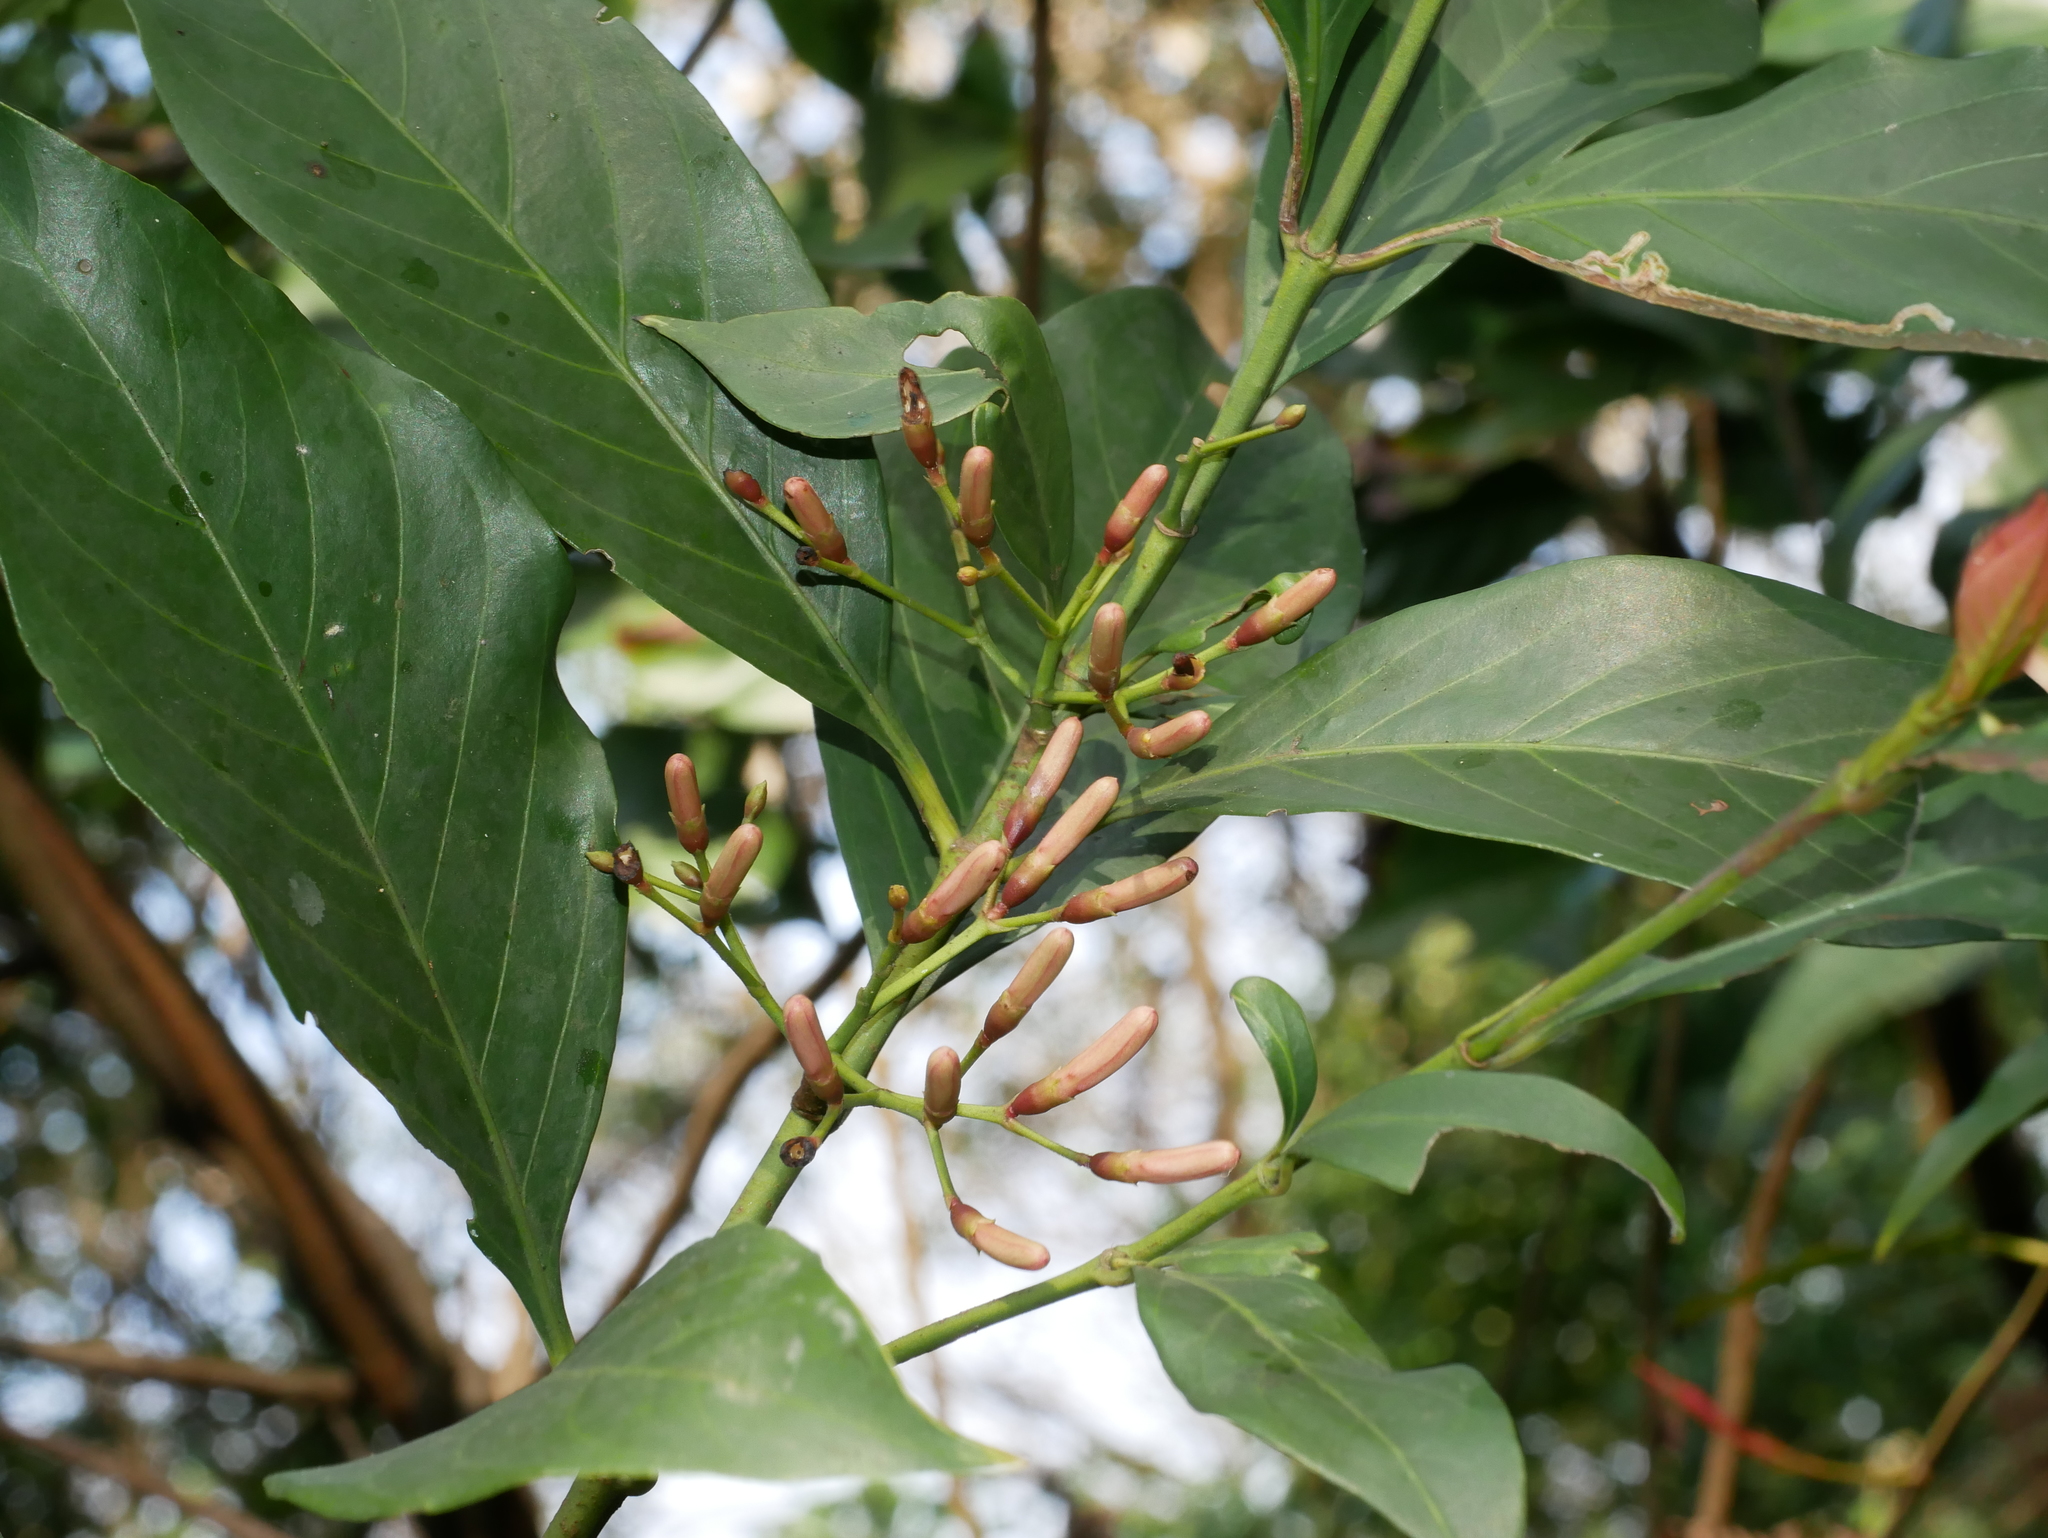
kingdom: Plantae
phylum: Tracheophyta
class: Magnoliopsida
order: Gentianales
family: Rubiaceae
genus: Aidia
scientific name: Aidia cochinchinensis
